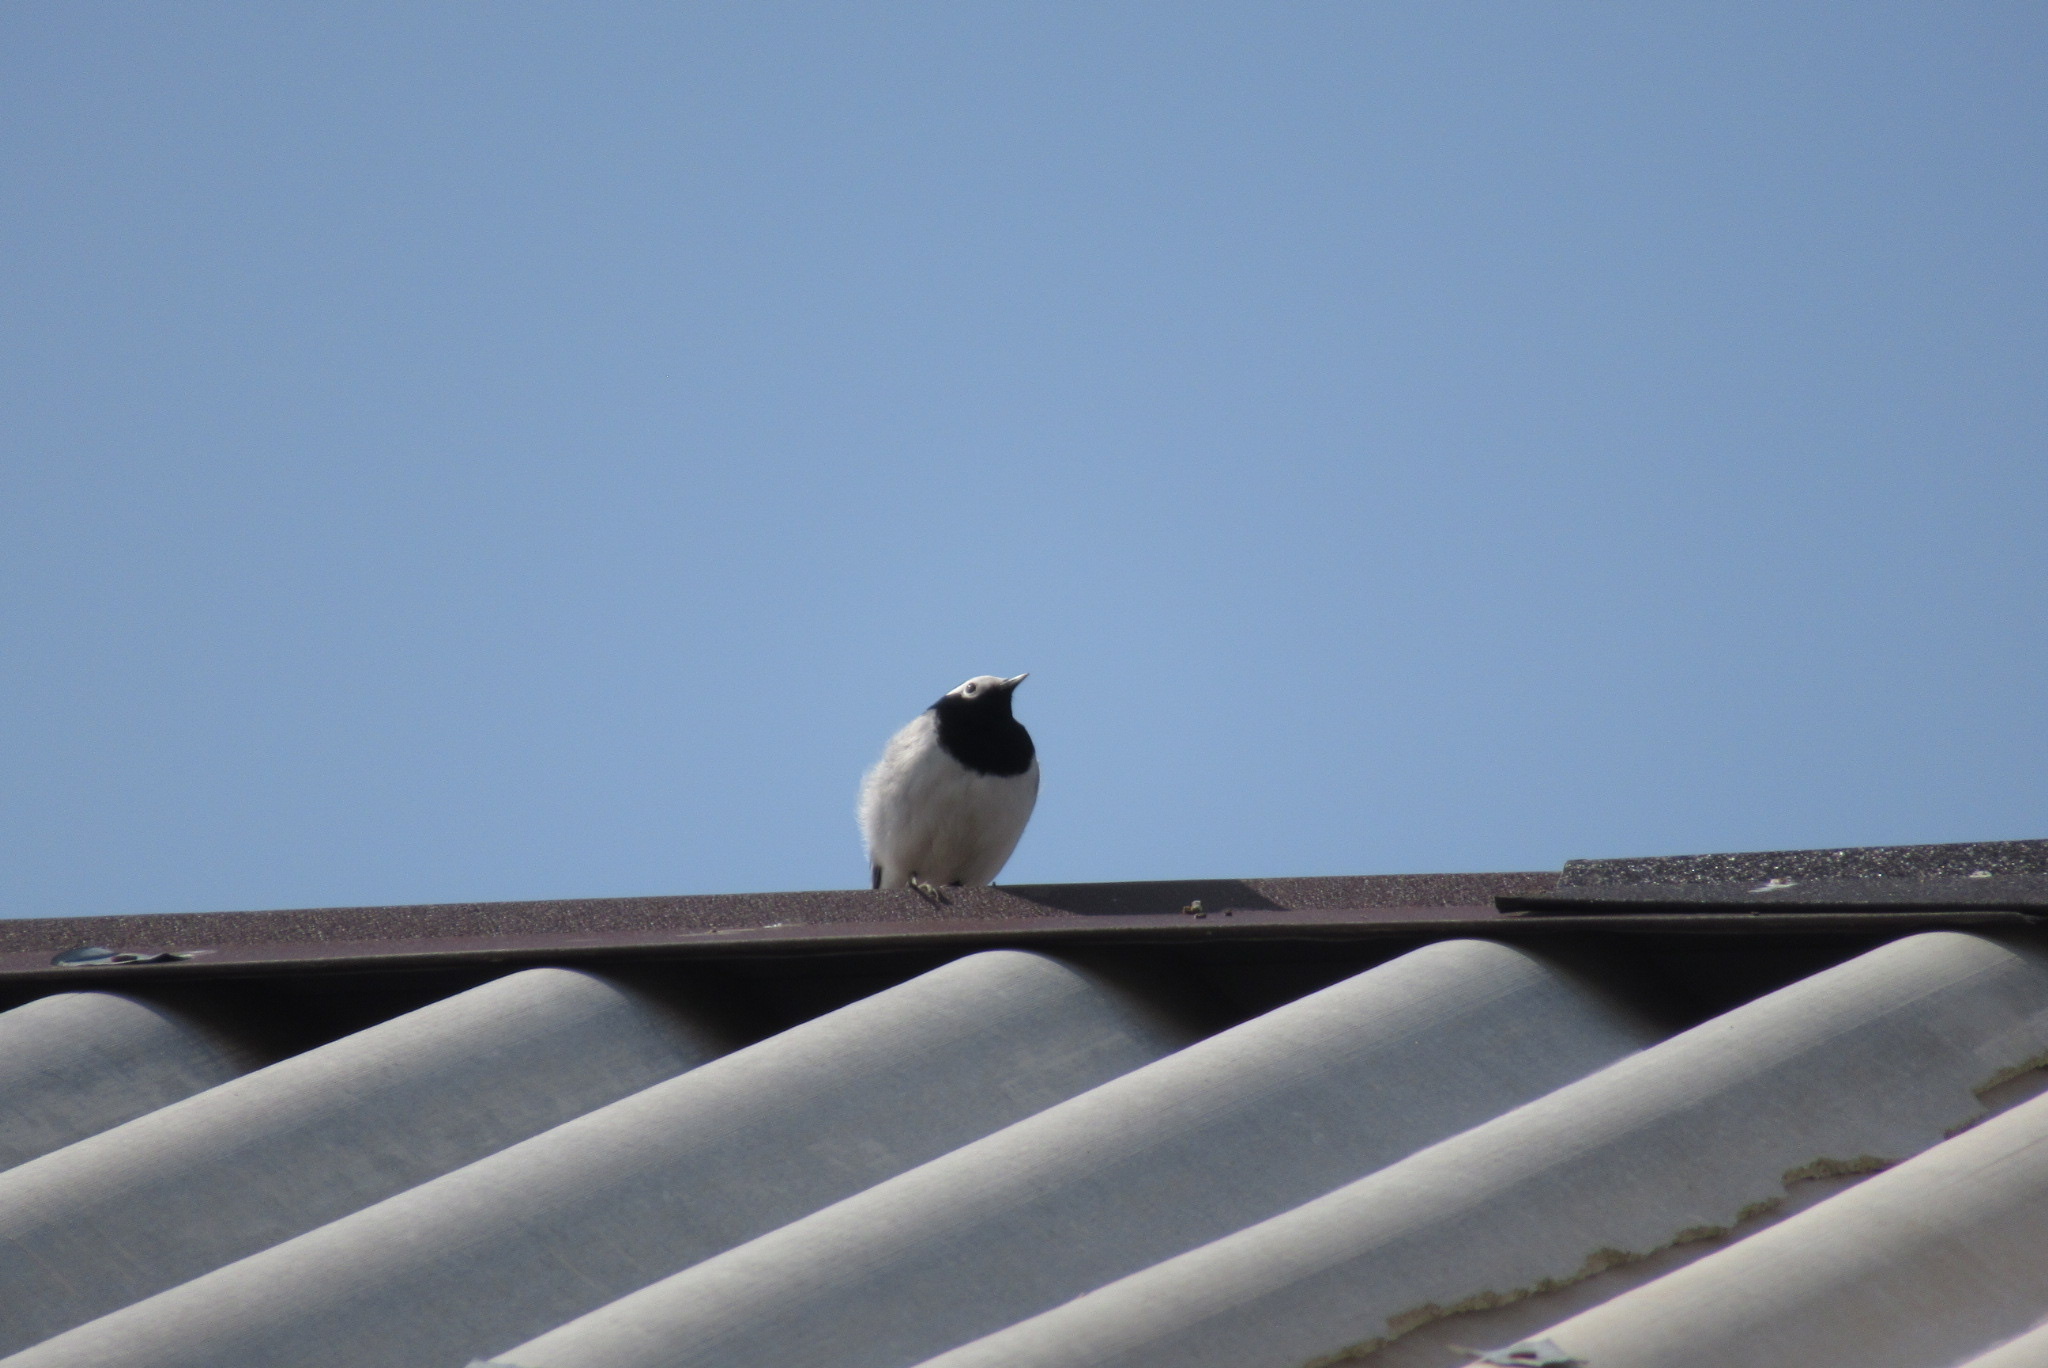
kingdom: Animalia
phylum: Chordata
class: Aves
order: Passeriformes
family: Motacillidae
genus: Motacilla
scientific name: Motacilla alba
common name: White wagtail
